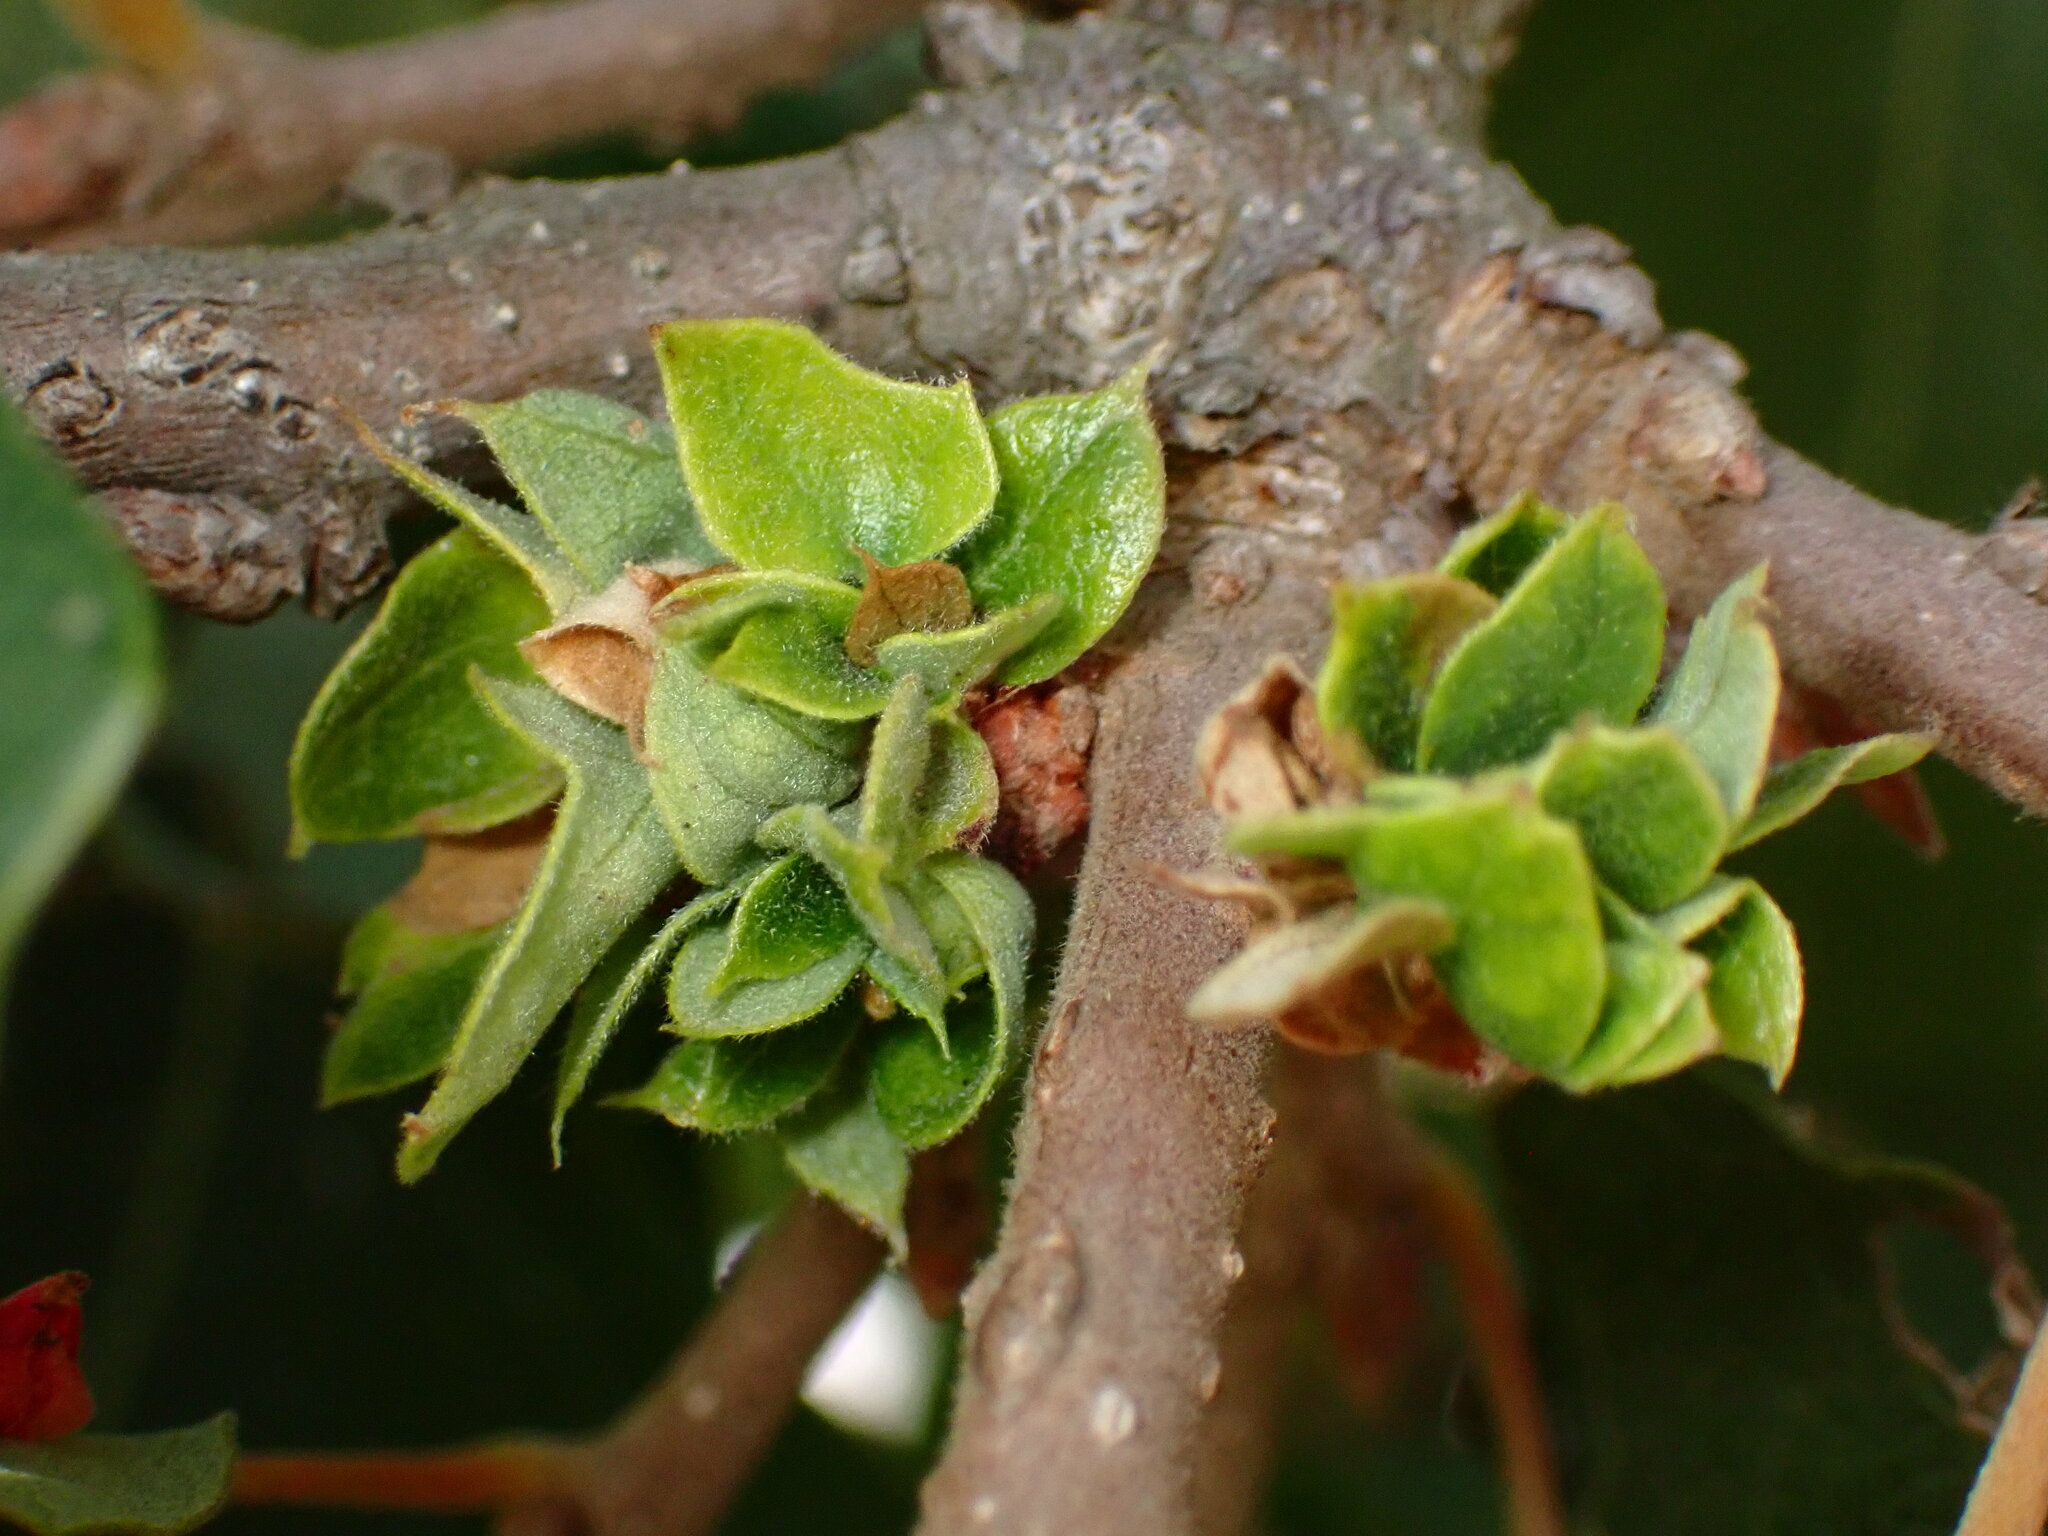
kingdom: Animalia
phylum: Arthropoda
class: Insecta
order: Hymenoptera
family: Cynipidae
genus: Andricus
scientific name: Andricus
